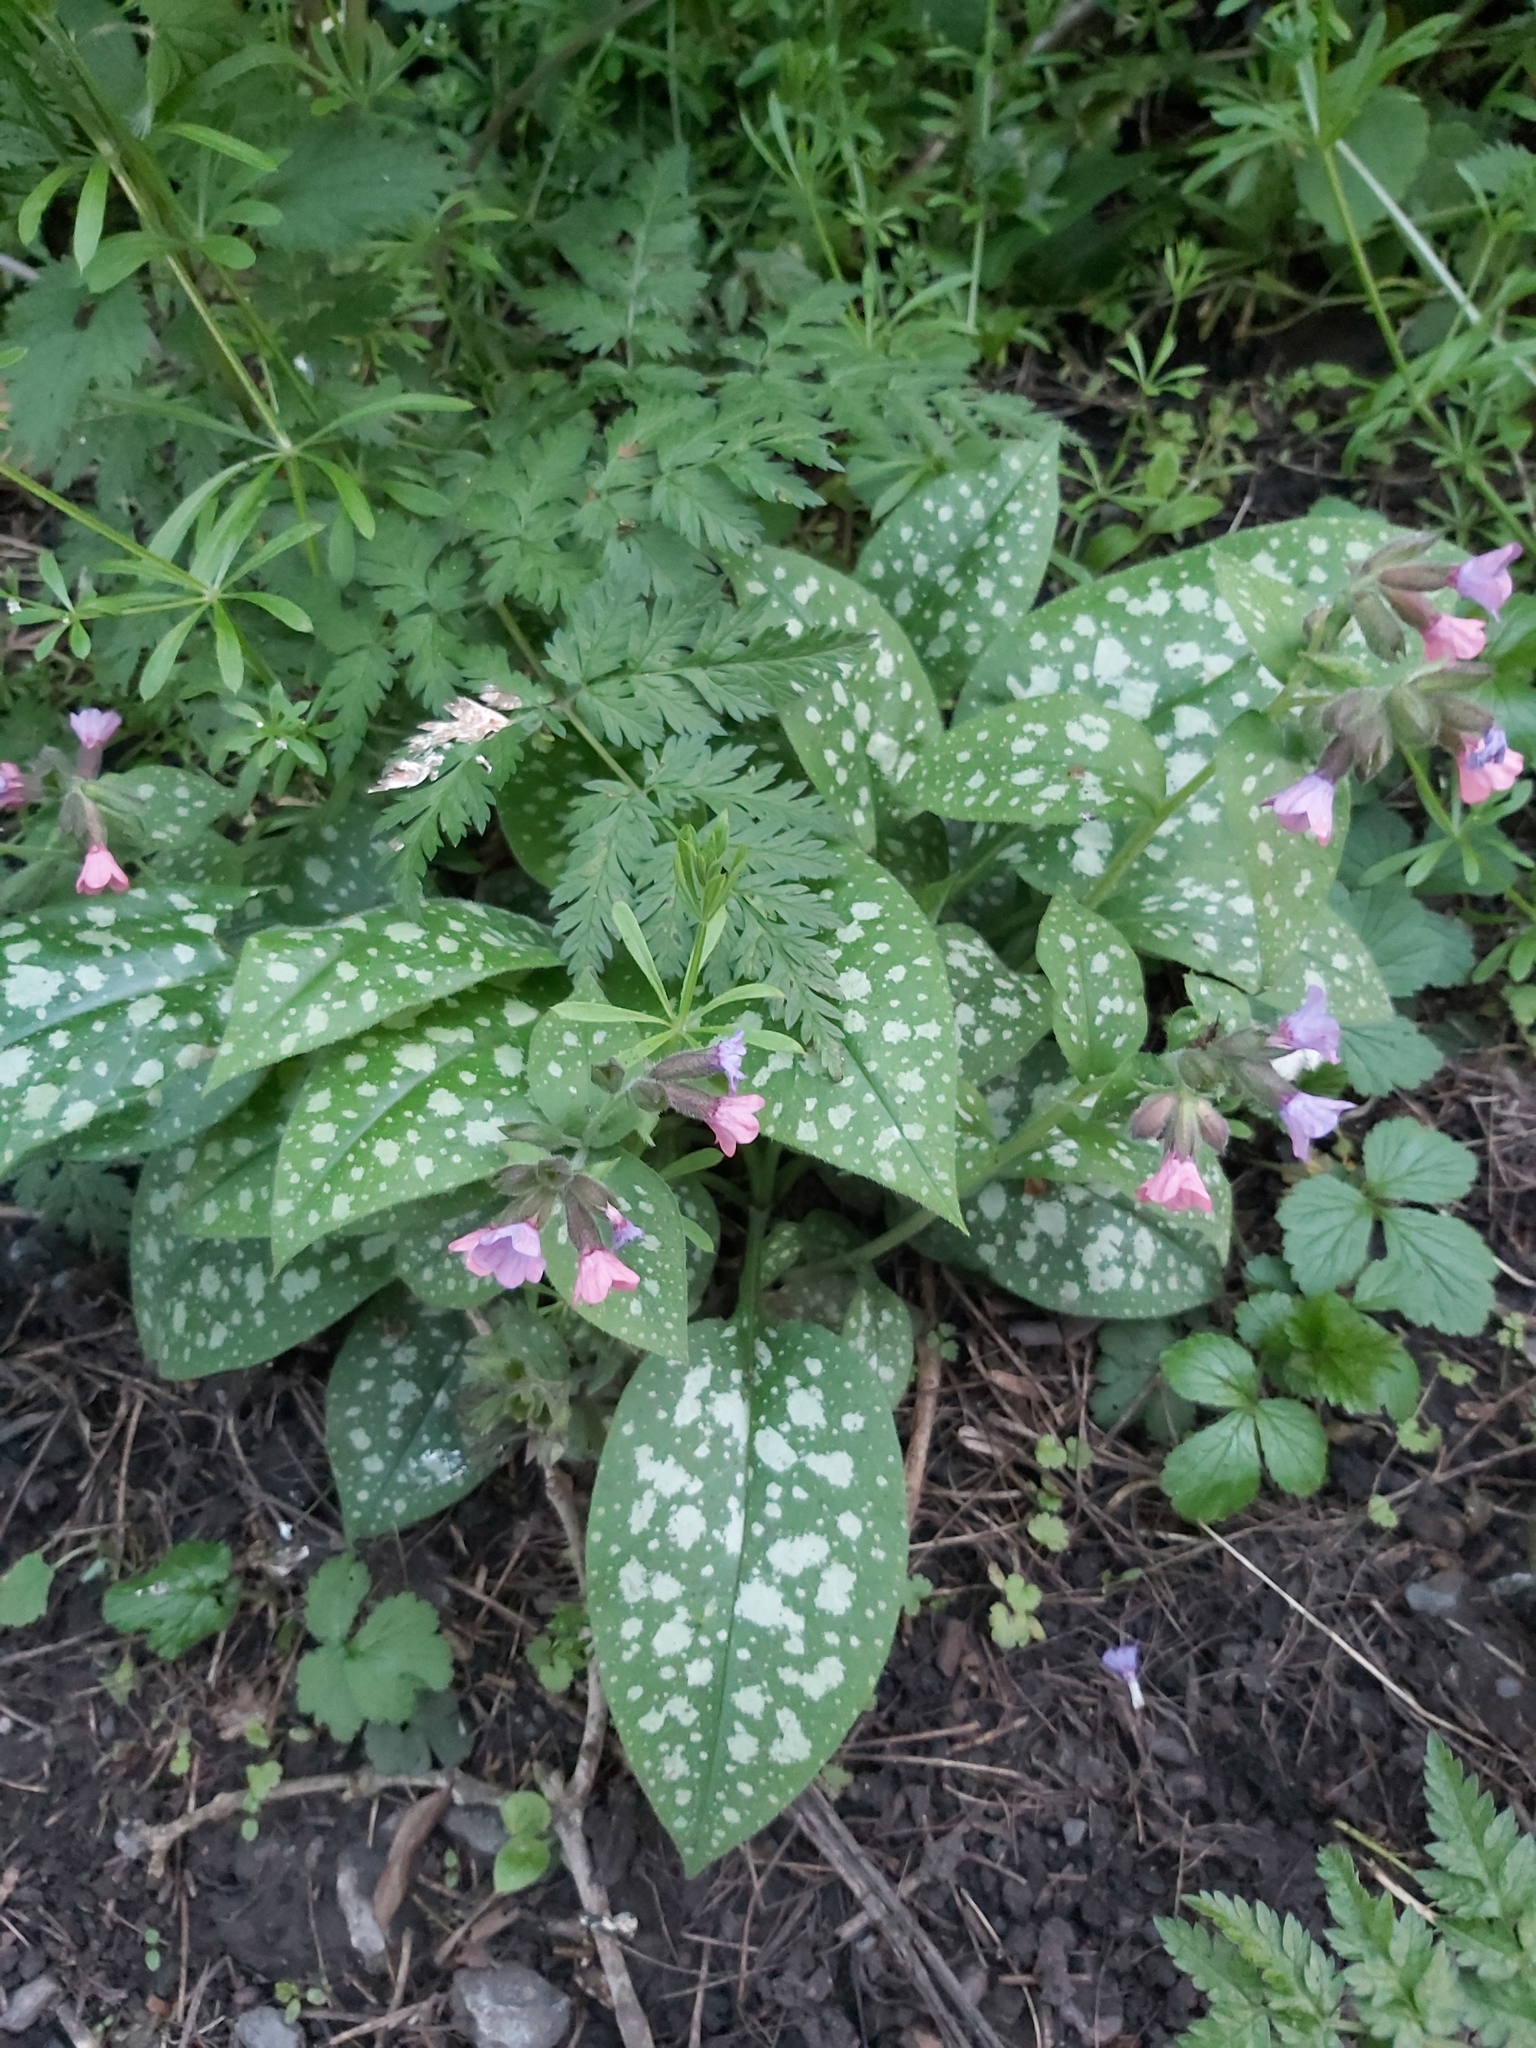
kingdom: Plantae
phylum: Tracheophyta
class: Magnoliopsida
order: Boraginales
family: Boraginaceae
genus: Pulmonaria
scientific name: Pulmonaria officinalis
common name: Lungwort
